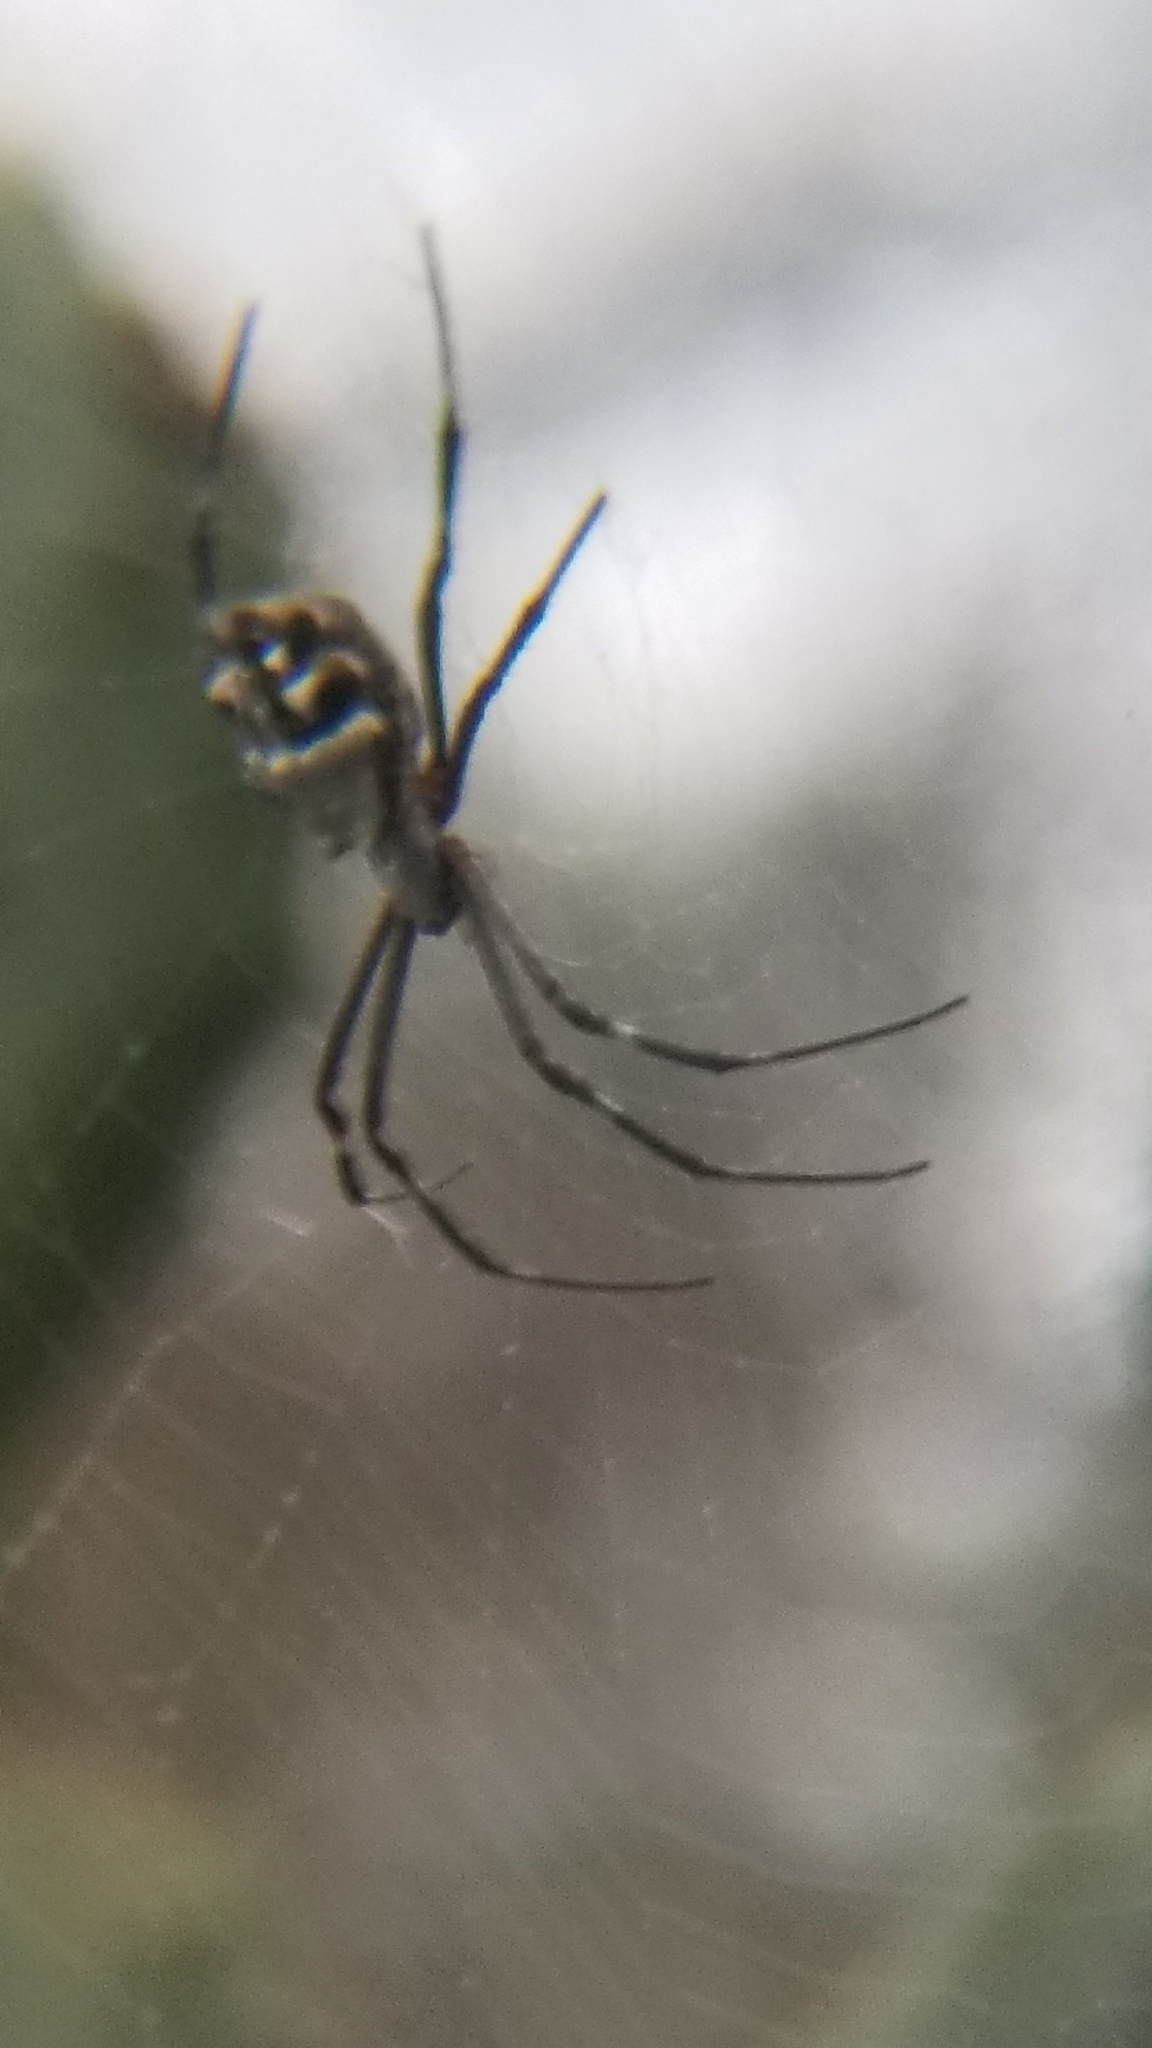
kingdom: Animalia
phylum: Arthropoda
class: Arachnida
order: Araneae
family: Araneidae
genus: Argiope
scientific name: Argiope argentata
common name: Orb weavers
